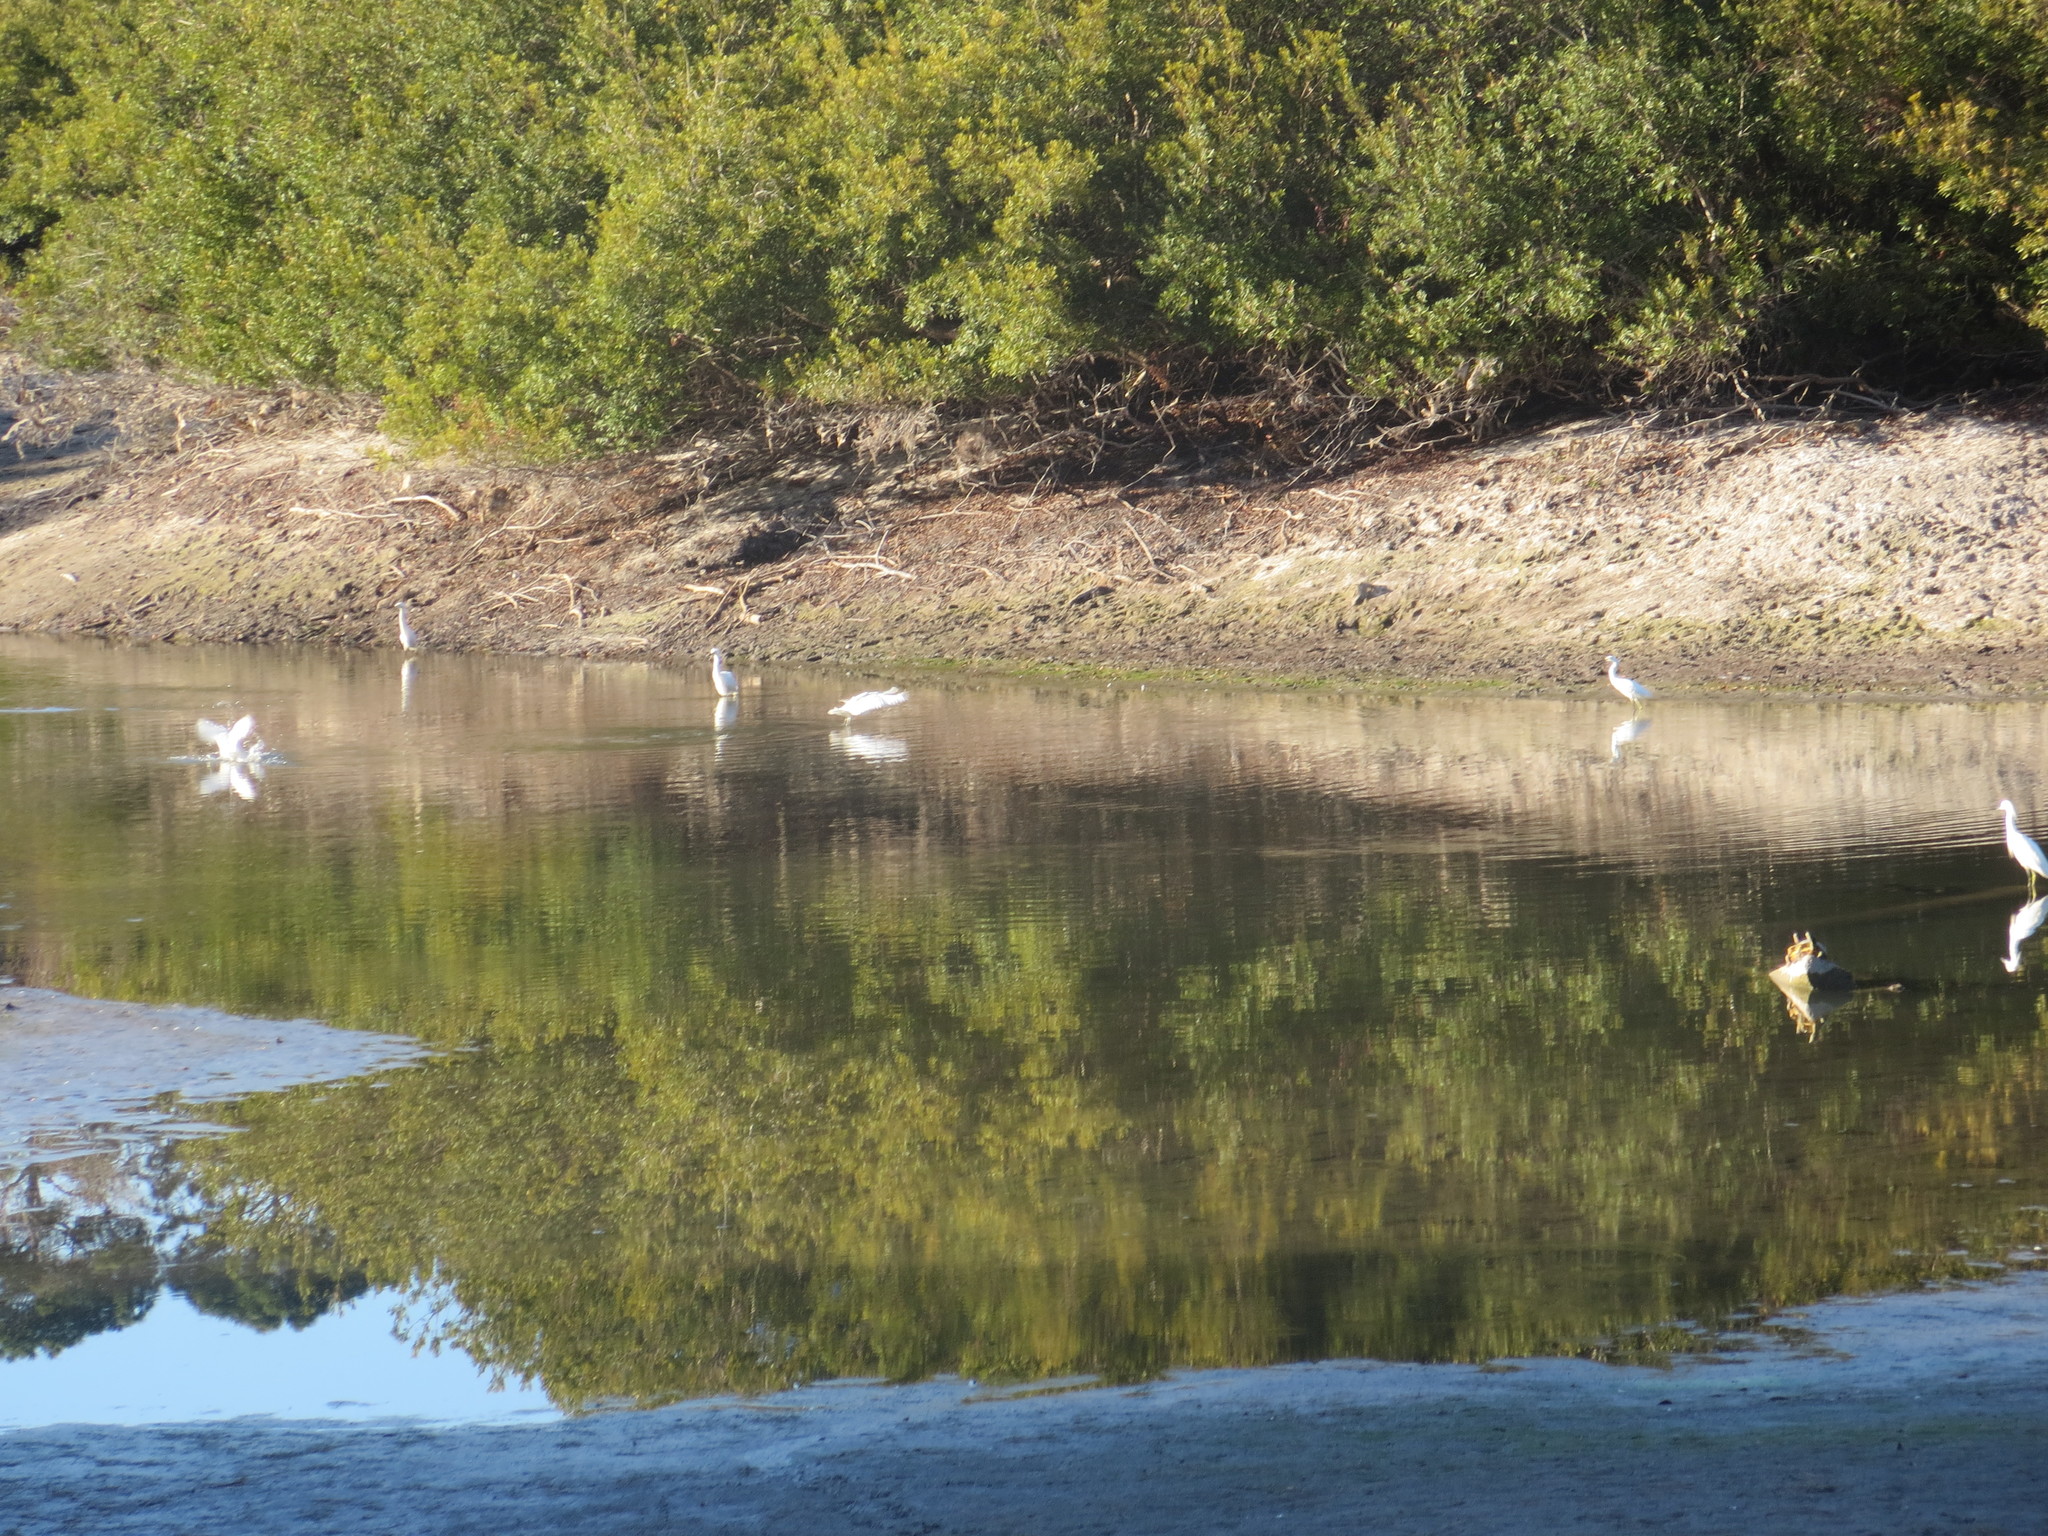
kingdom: Animalia
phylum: Chordata
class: Aves
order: Pelecaniformes
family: Ardeidae
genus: Egretta
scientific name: Egretta thula
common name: Snowy egret
